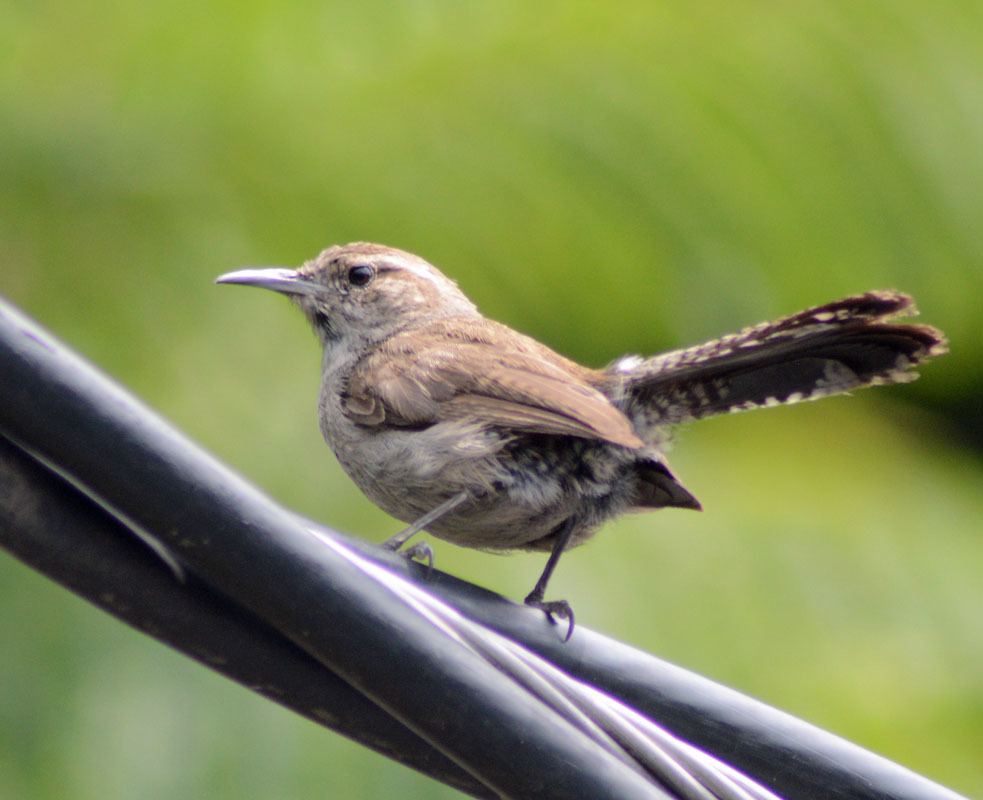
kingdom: Animalia
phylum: Chordata
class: Aves
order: Passeriformes
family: Troglodytidae
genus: Thryomanes
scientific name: Thryomanes bewickii
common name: Bewick's wren
